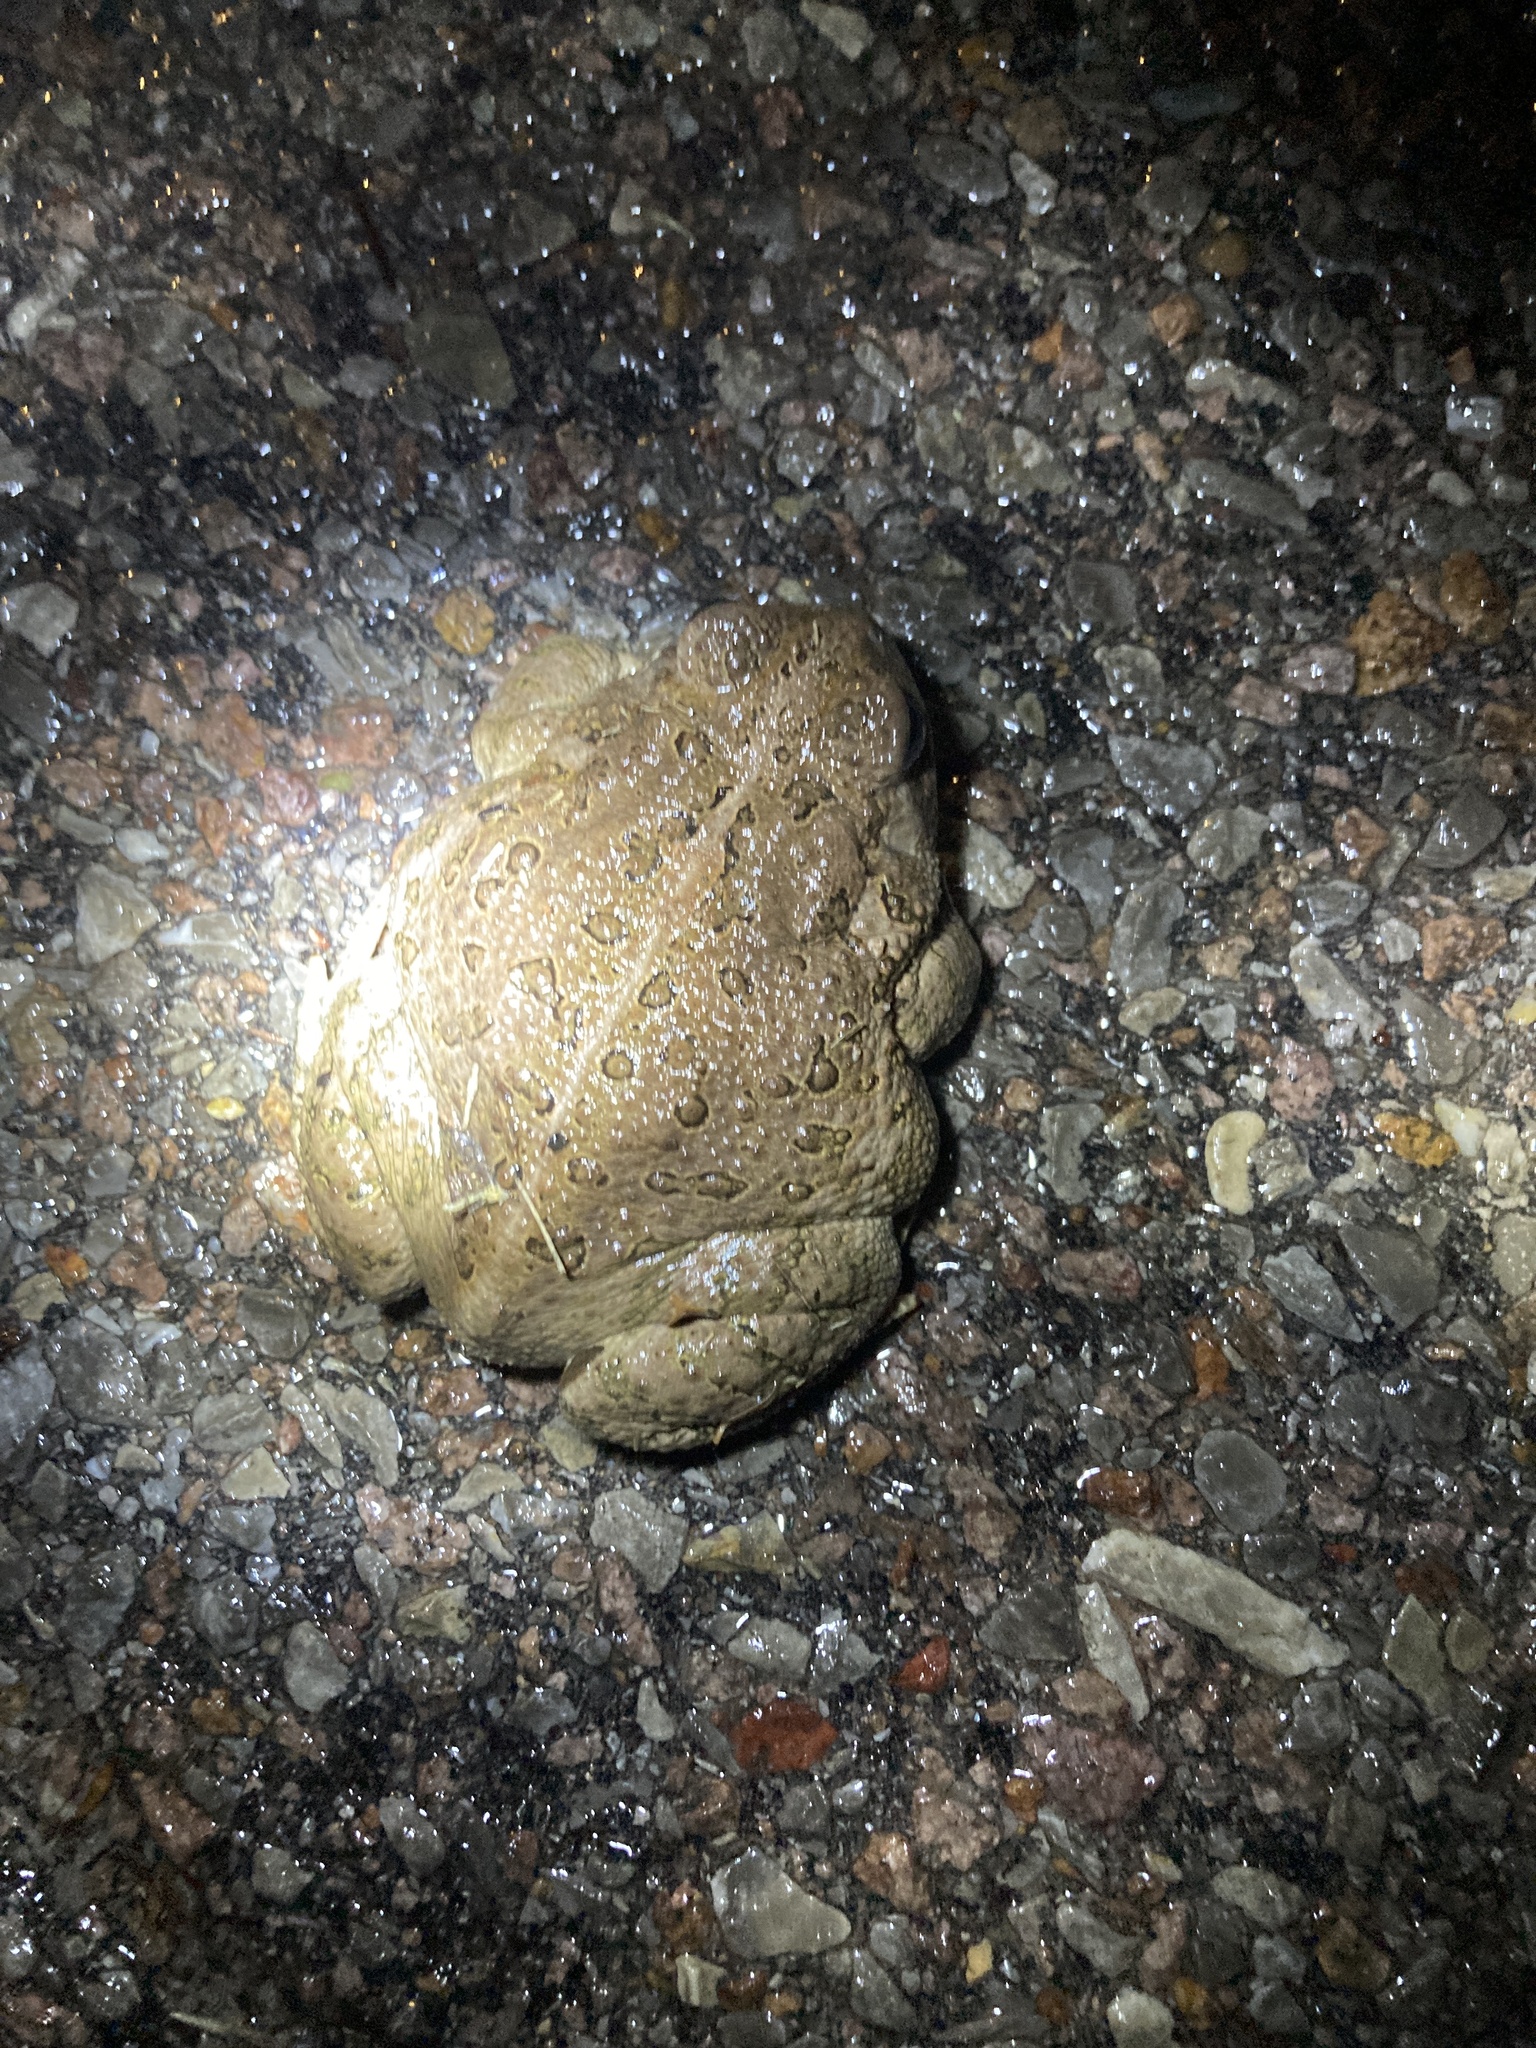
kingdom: Animalia
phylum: Chordata
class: Amphibia
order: Anura
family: Bufonidae
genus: Anaxyrus
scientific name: Anaxyrus woodhousii
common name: Woodhouse's toad
